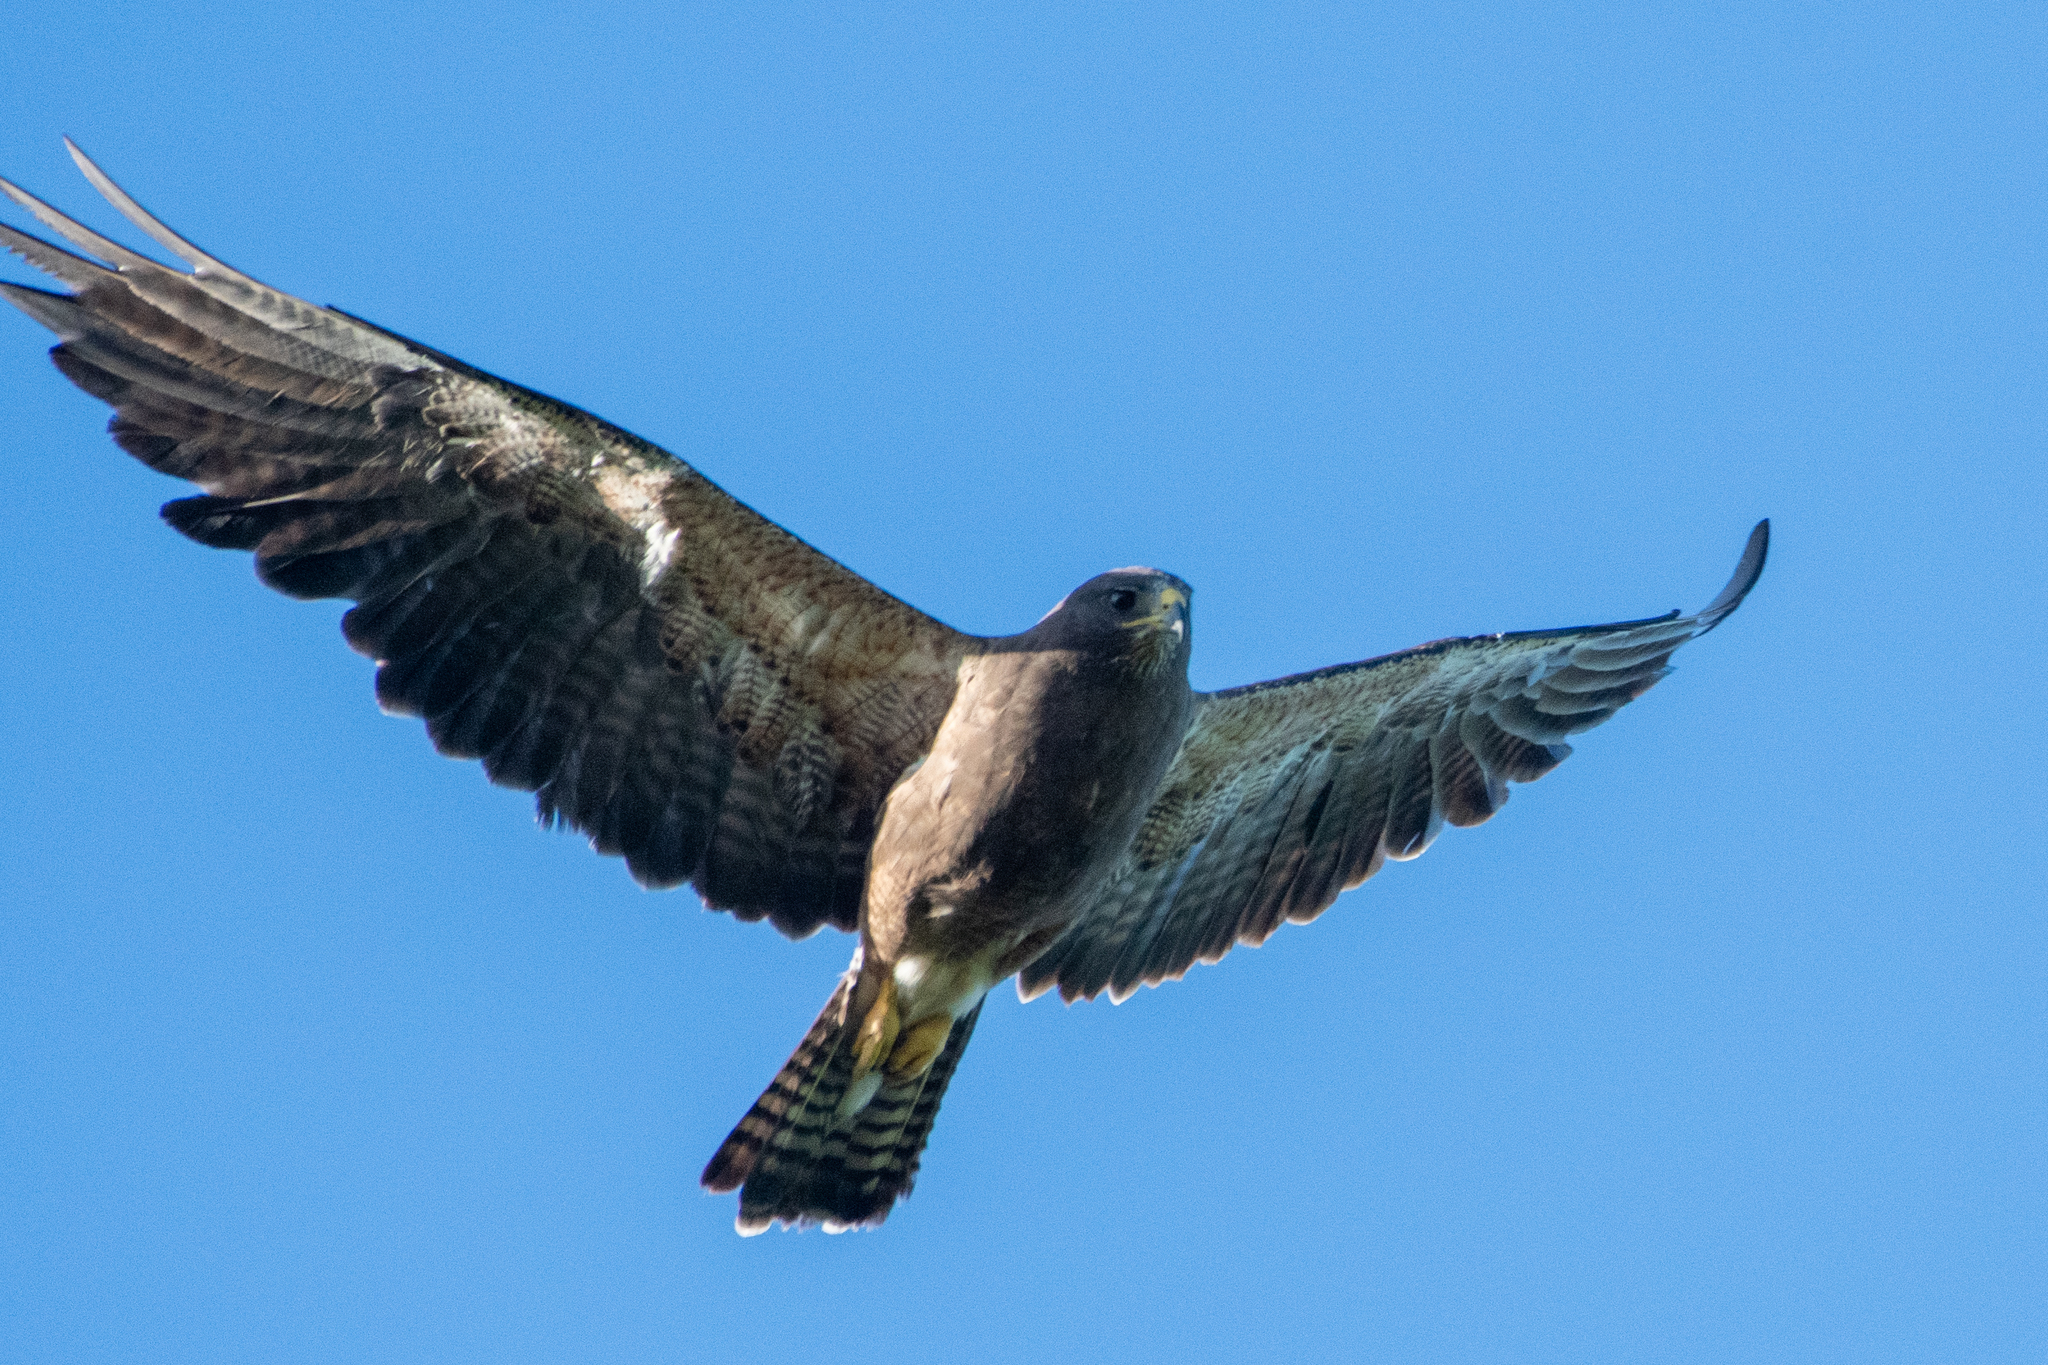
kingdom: Animalia
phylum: Chordata
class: Aves
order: Accipitriformes
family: Accipitridae
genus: Buteo
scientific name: Buteo swainsoni
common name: Swainson's hawk
